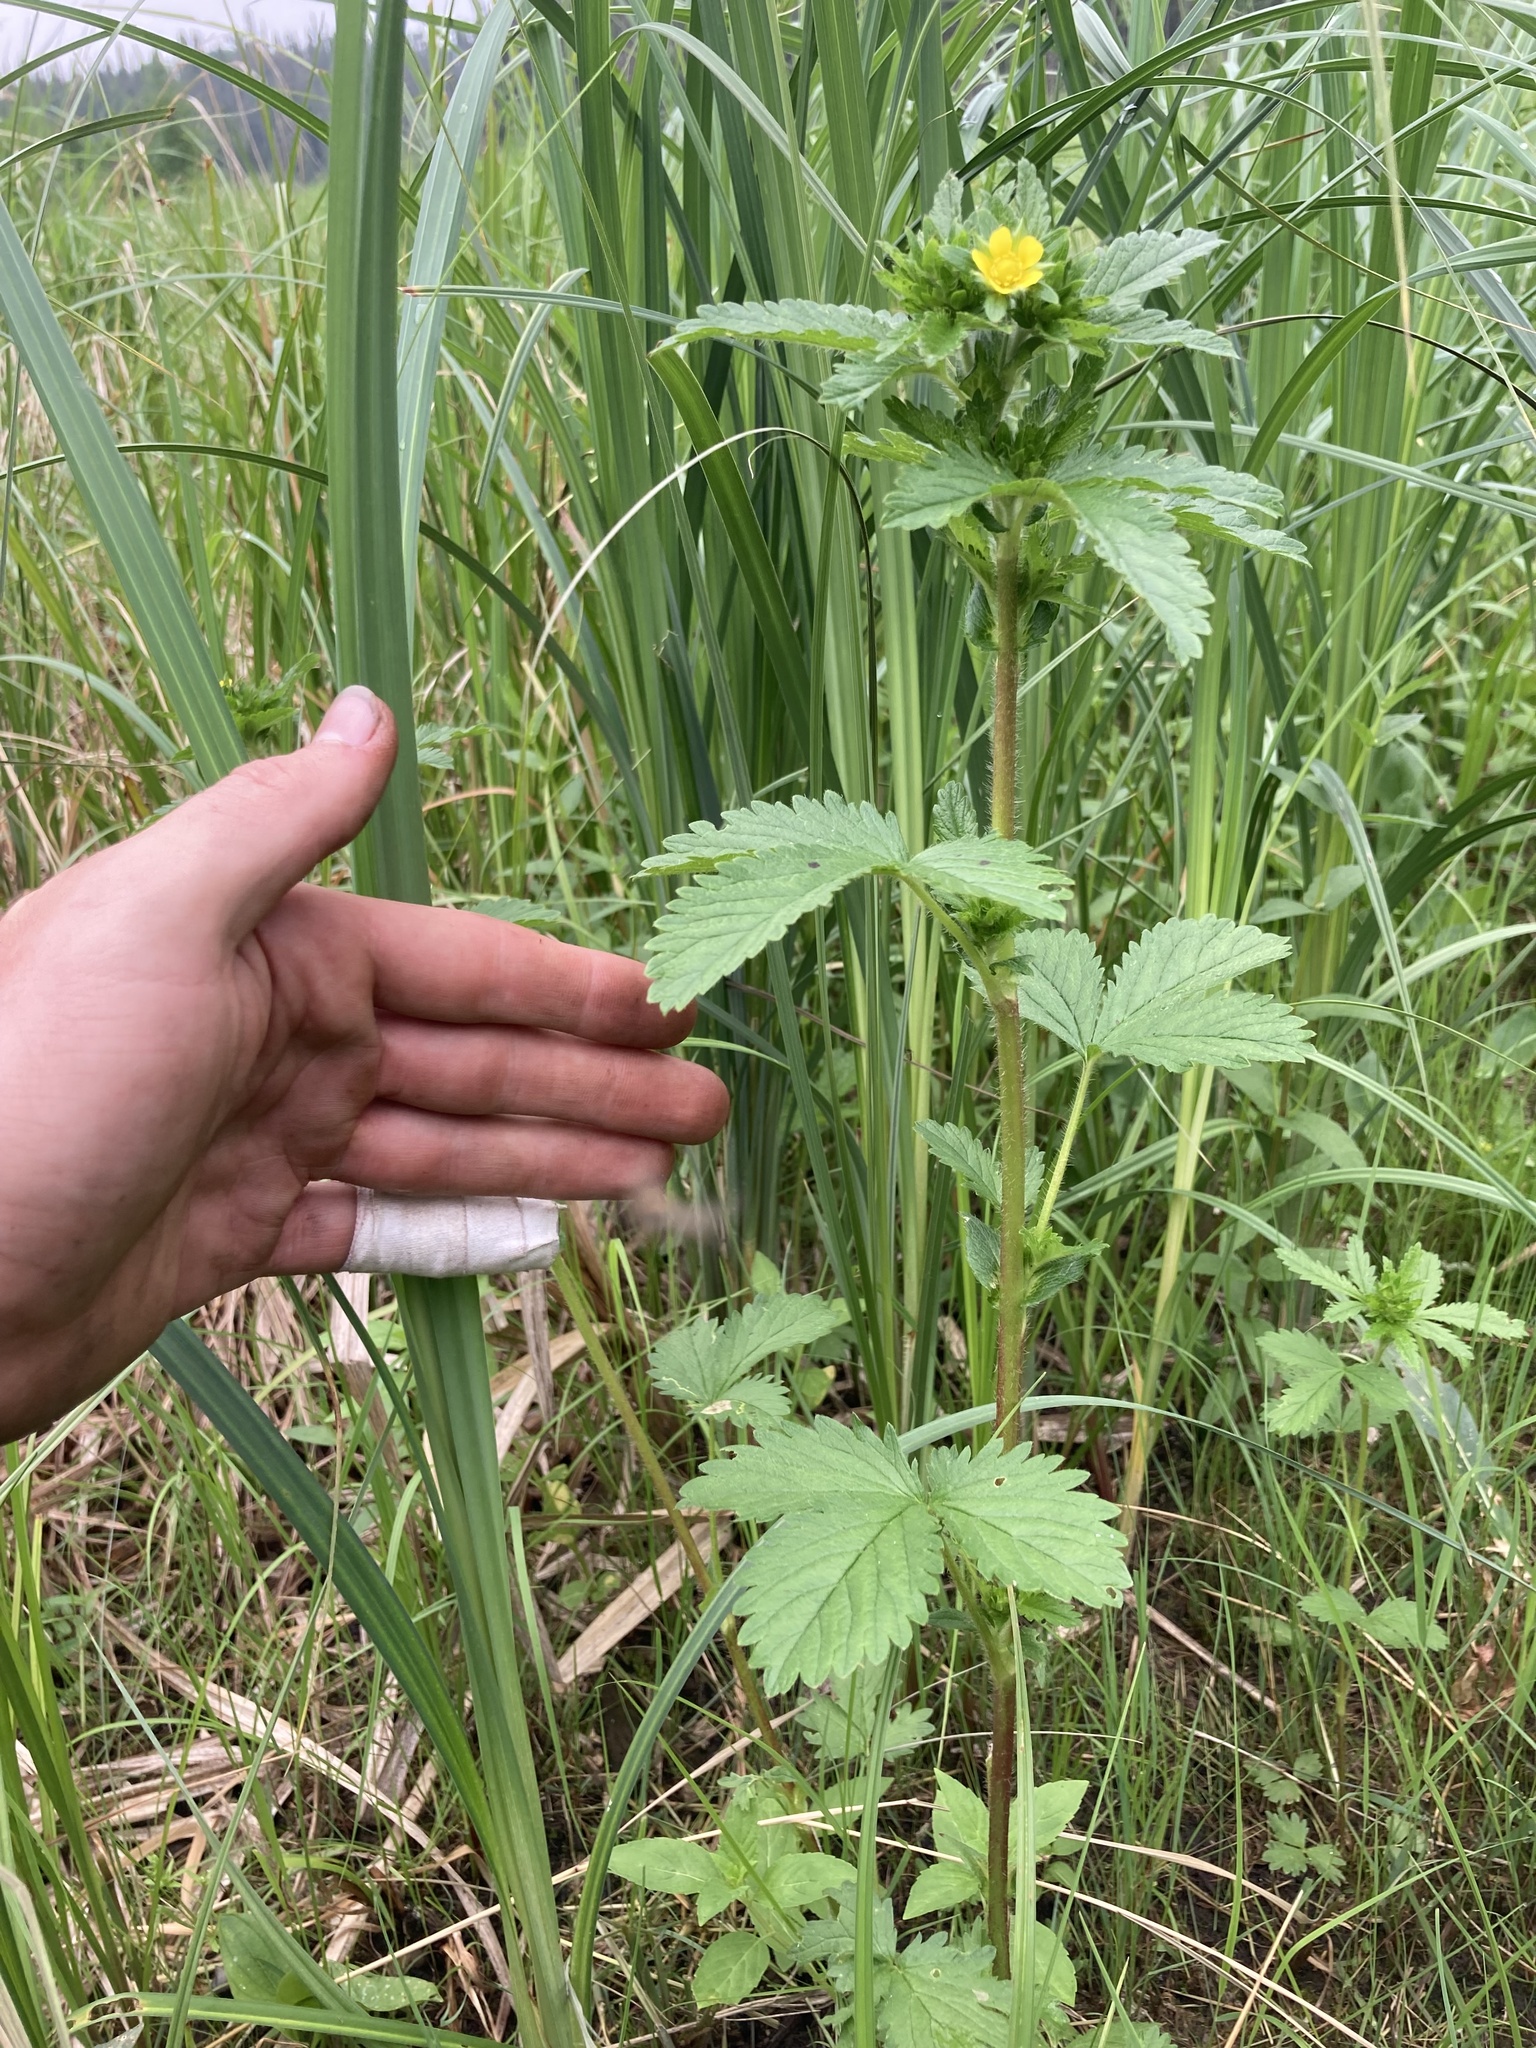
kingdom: Plantae
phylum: Tracheophyta
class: Magnoliopsida
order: Rosales
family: Rosaceae
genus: Potentilla
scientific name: Potentilla norvegica
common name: Ternate-leaved cinquefoil
